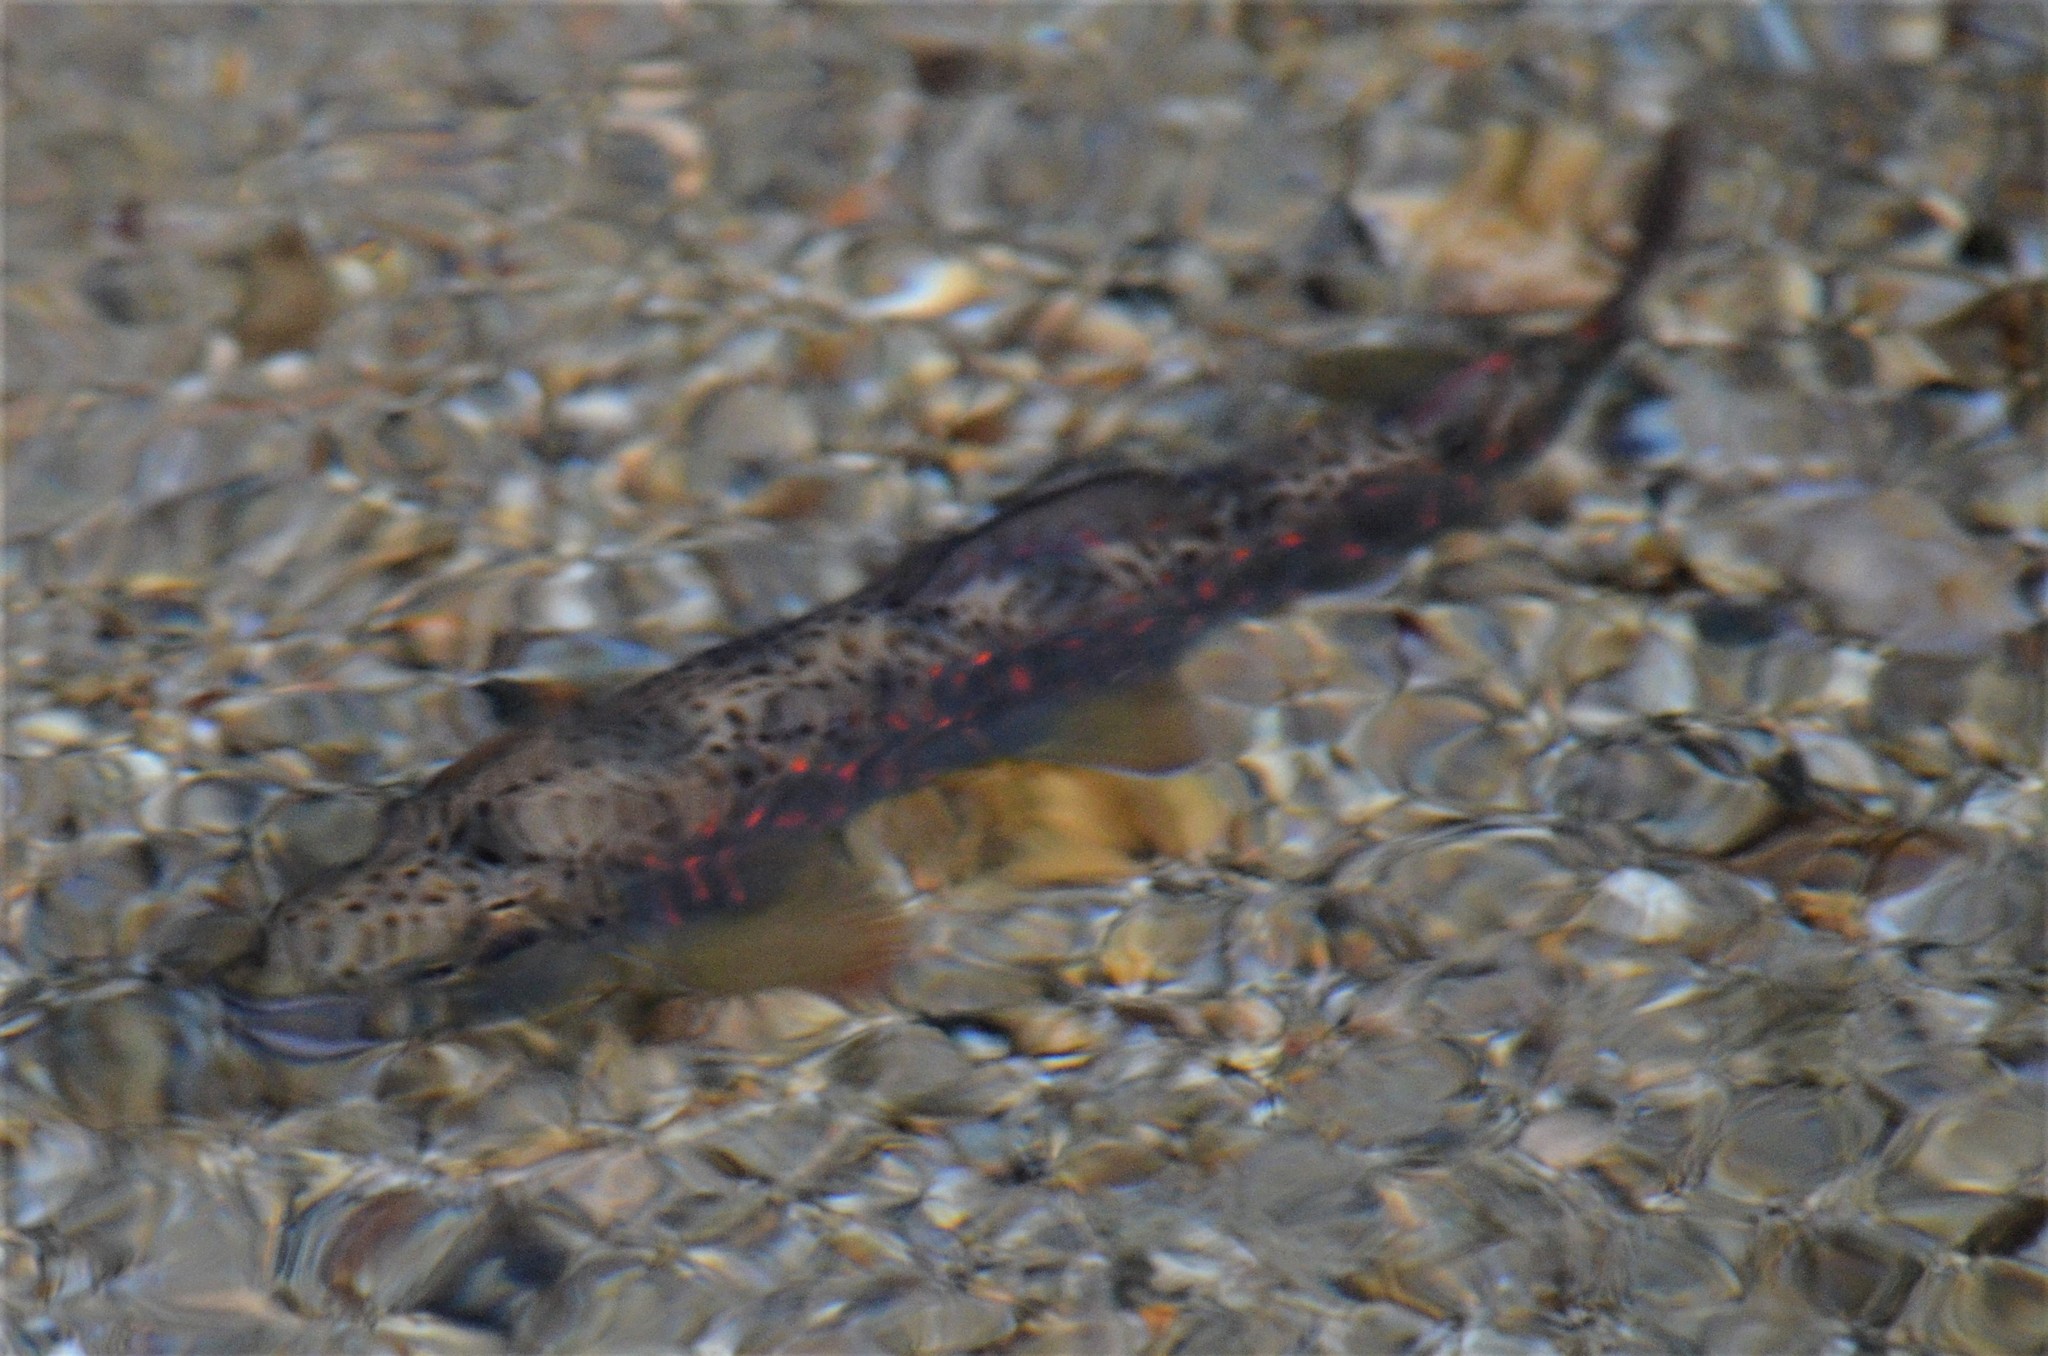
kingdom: Animalia
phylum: Chordata
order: Salmoniformes
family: Salmonidae
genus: Salmo
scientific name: Salmo trutta
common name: Brown trout
